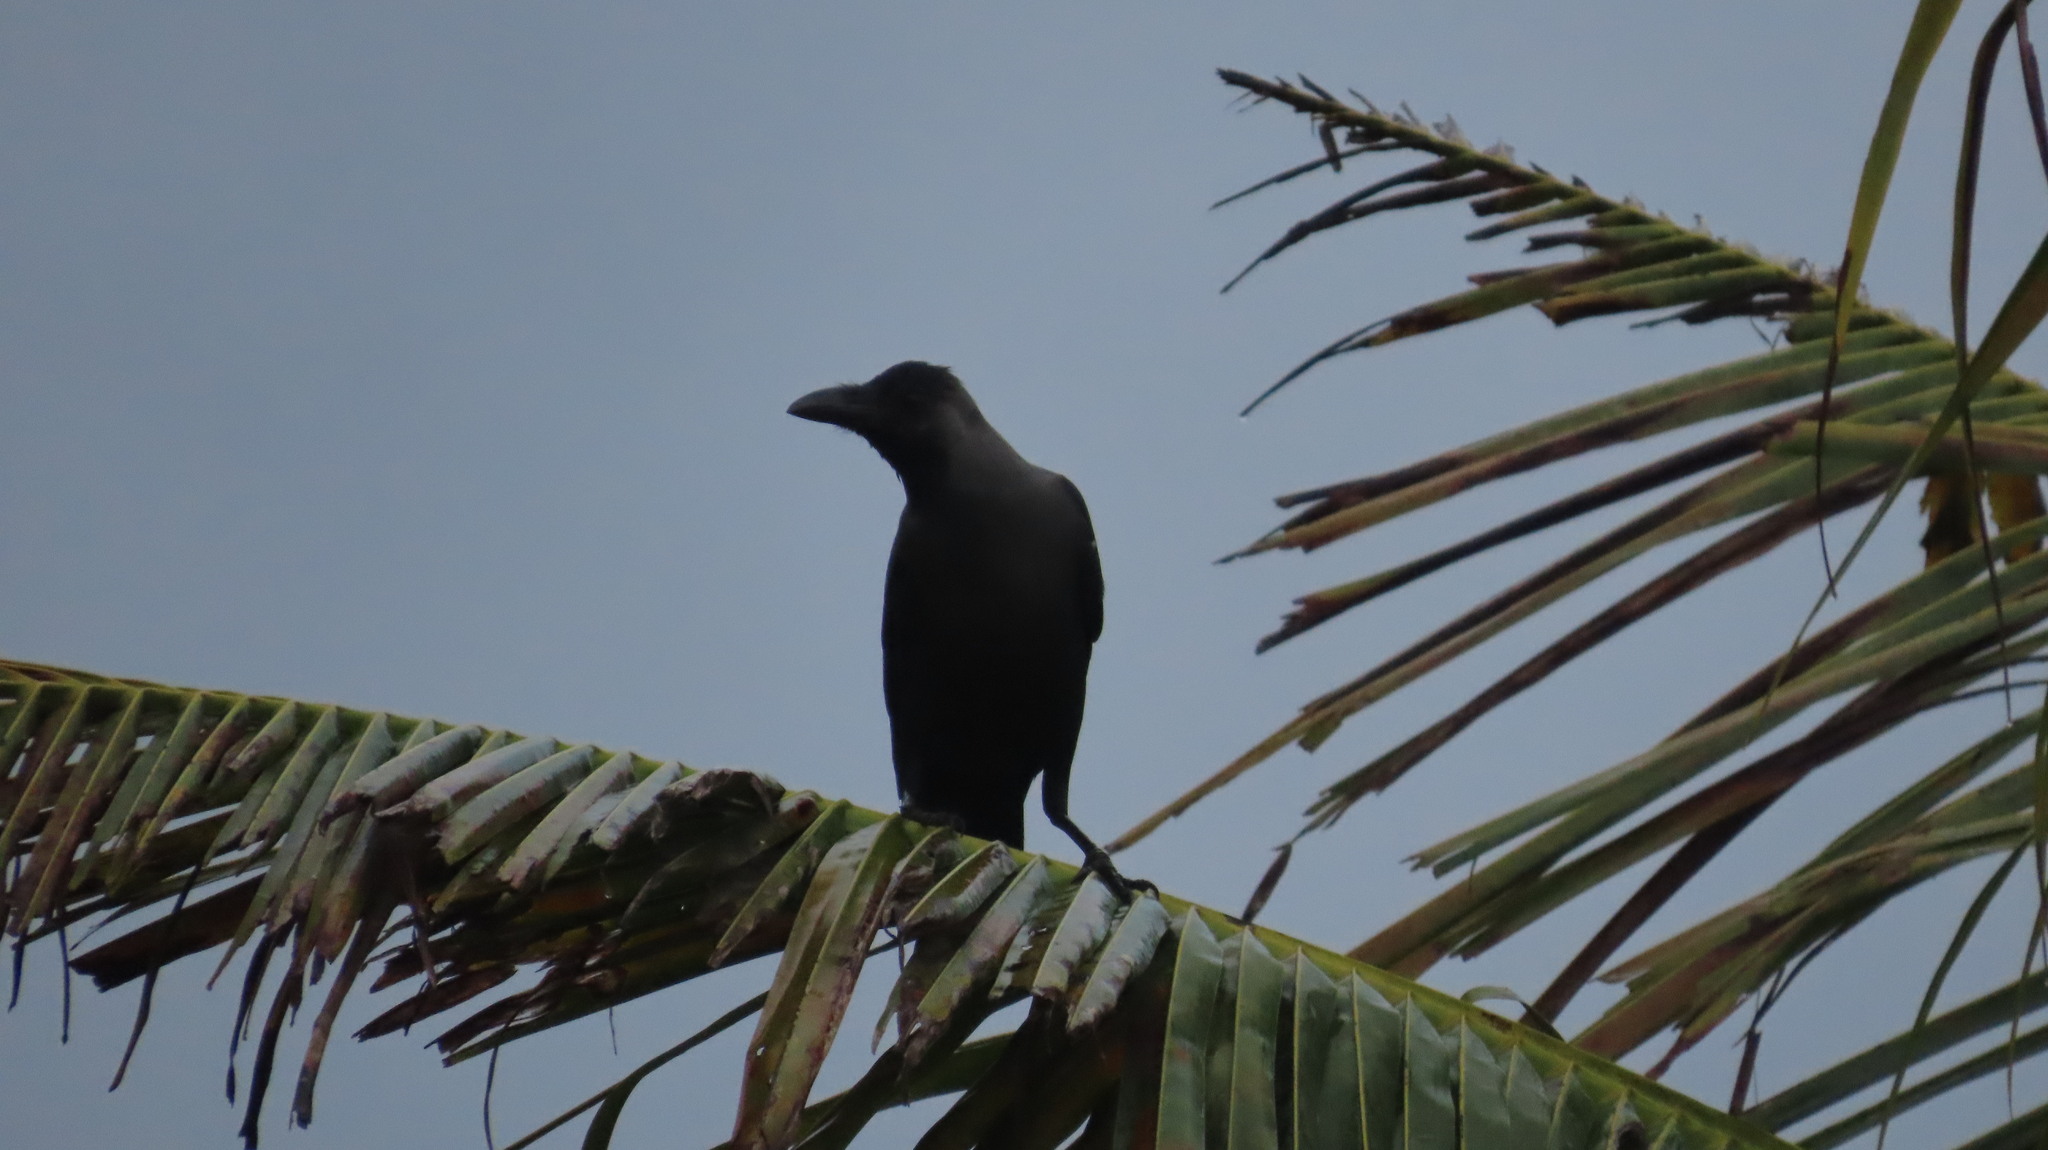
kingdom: Animalia
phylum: Chordata
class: Aves
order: Passeriformes
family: Corvidae
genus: Corvus
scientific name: Corvus splendens
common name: House crow
